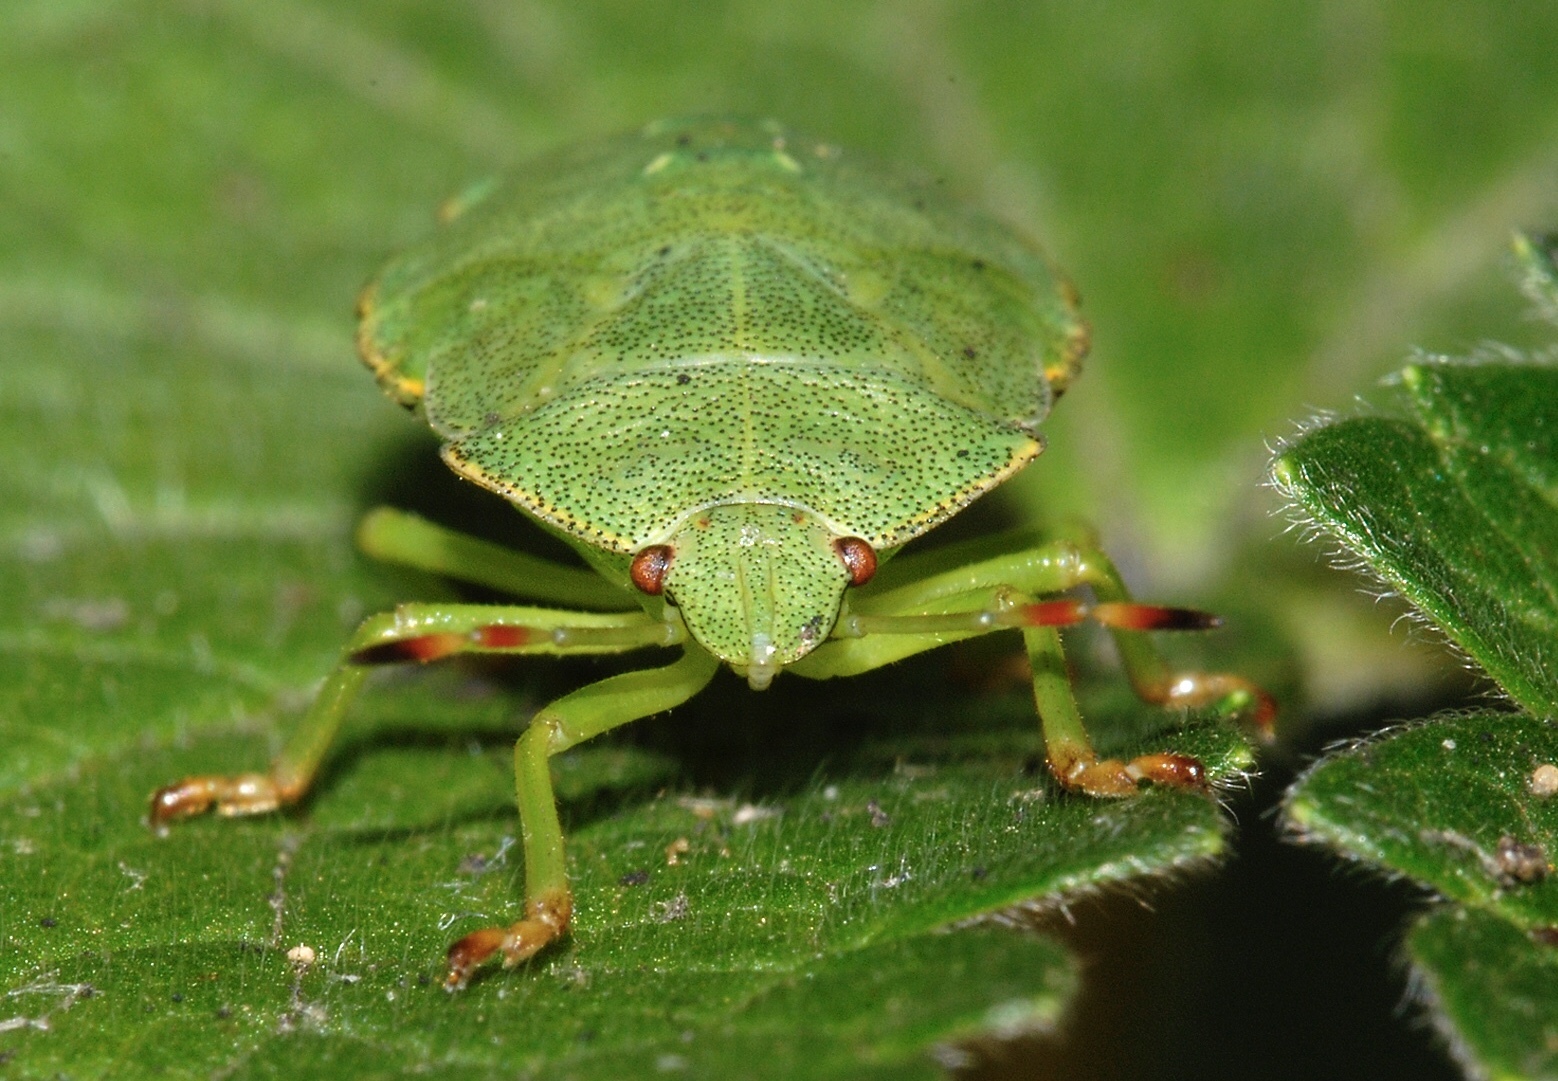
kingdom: Animalia
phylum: Arthropoda
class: Insecta
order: Hemiptera
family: Pentatomidae
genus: Palomena
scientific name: Palomena prasina
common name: Green shieldbug
